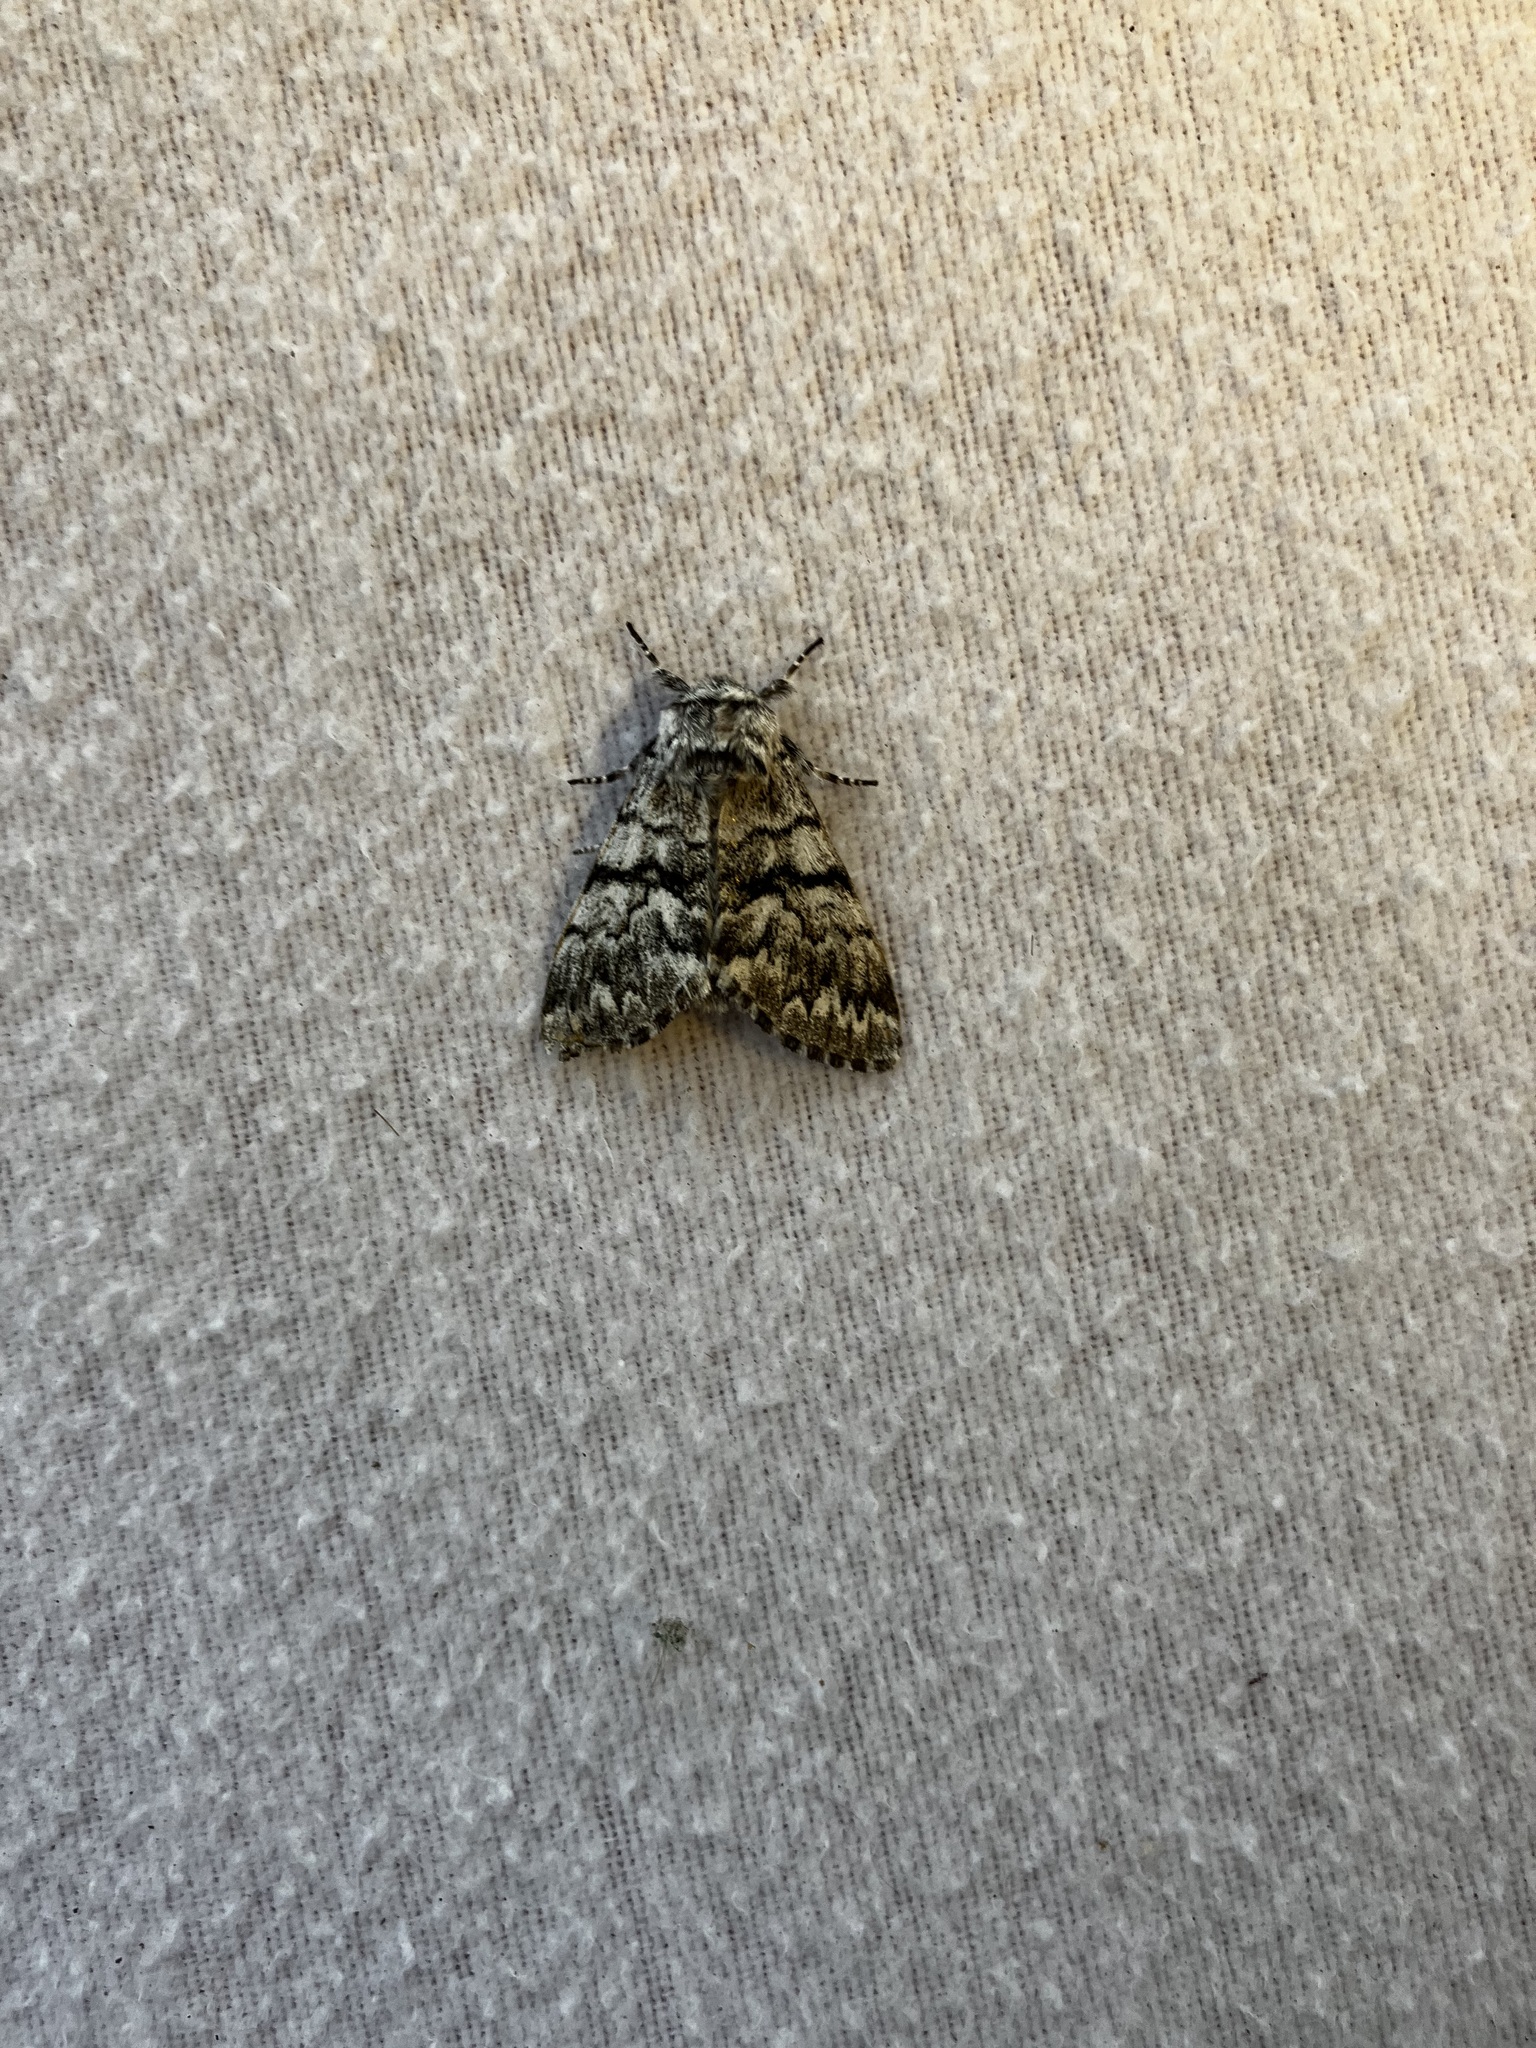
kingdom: Animalia
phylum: Arthropoda
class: Insecta
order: Lepidoptera
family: Noctuidae
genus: Panthea
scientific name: Panthea virginarius
